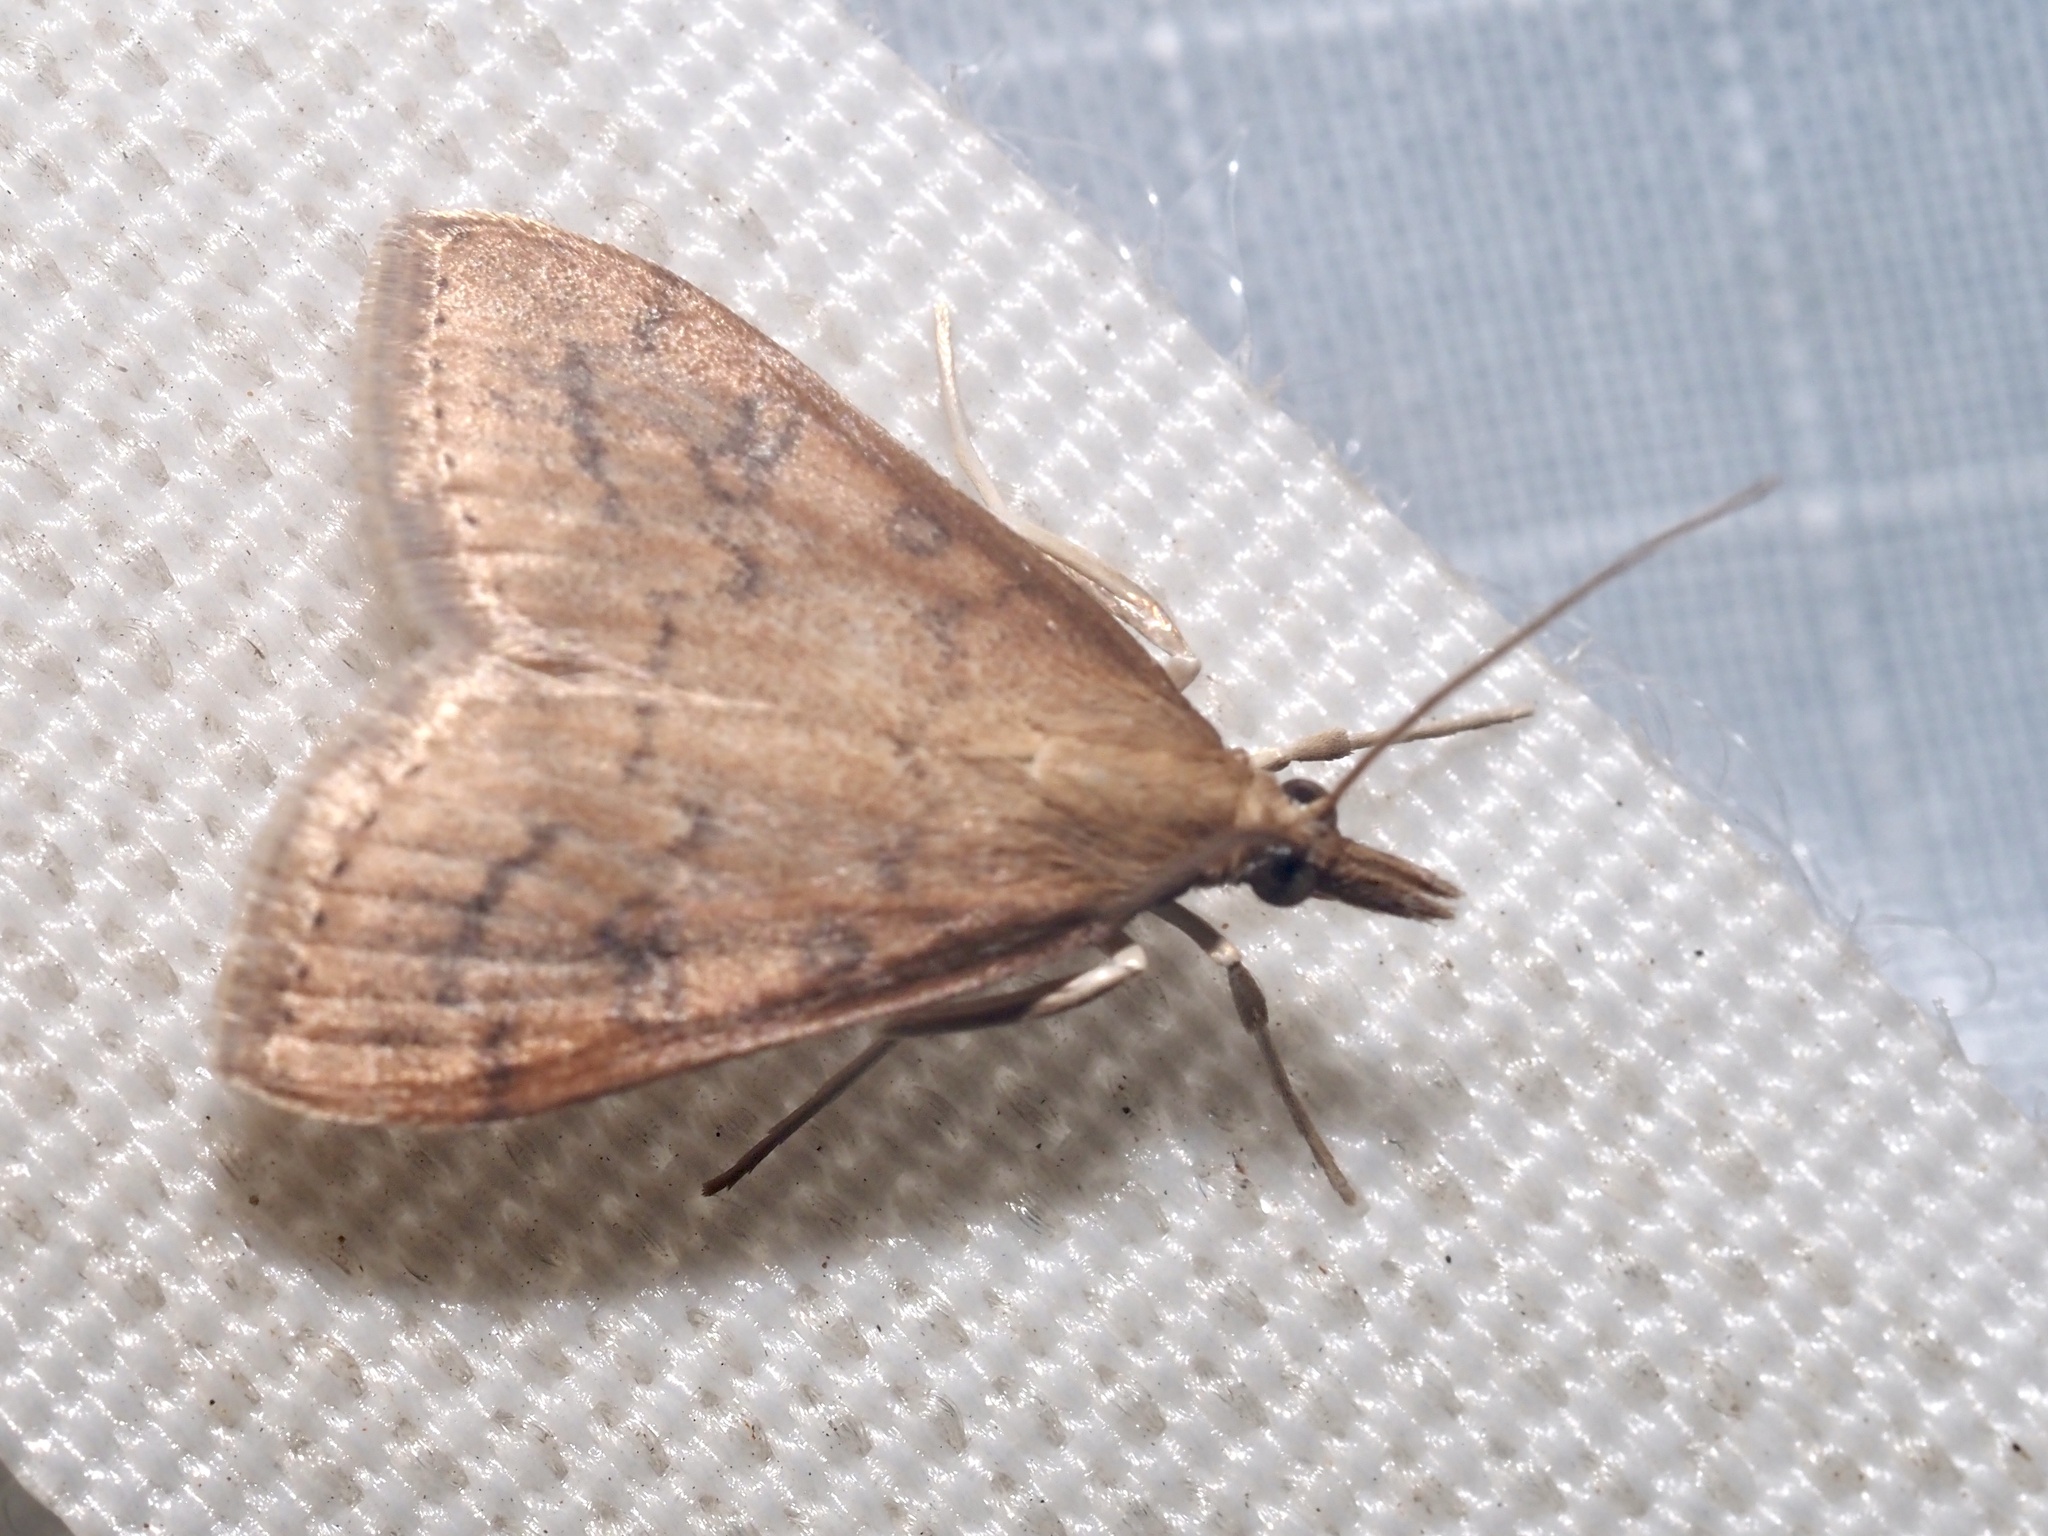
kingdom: Animalia
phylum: Arthropoda
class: Insecta
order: Lepidoptera
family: Crambidae
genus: Udea
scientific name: Udea rubigalis
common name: Celery leaftier moth
